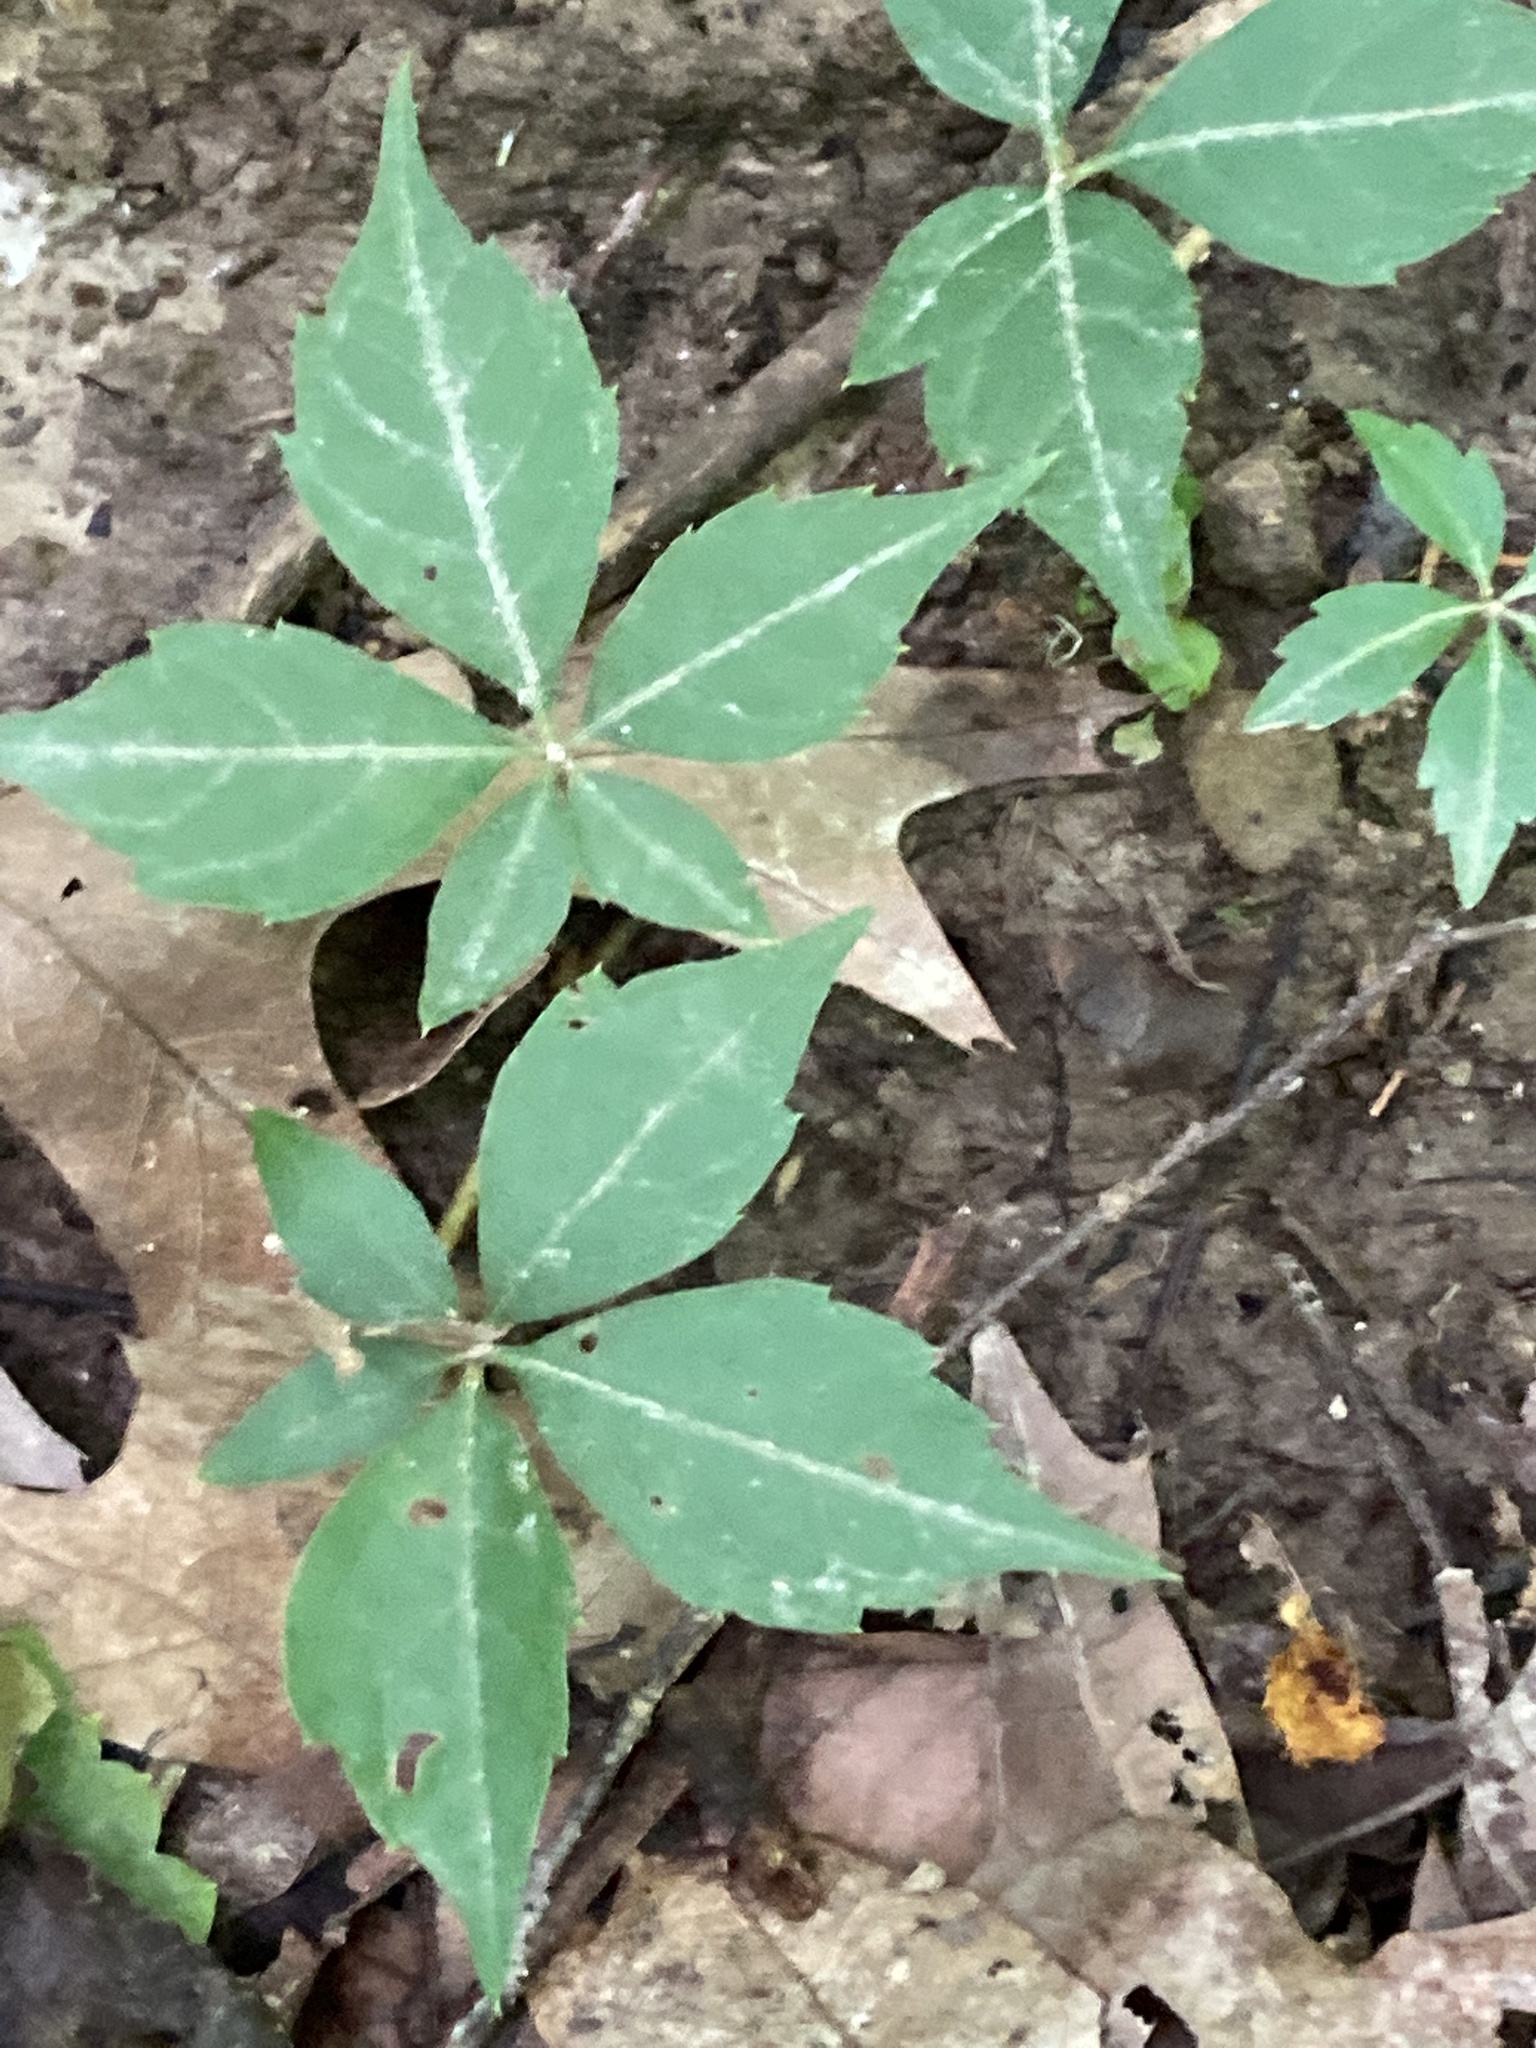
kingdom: Plantae
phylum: Tracheophyta
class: Magnoliopsida
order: Vitales
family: Vitaceae
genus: Parthenocissus
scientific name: Parthenocissus quinquefolia
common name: Virginia-creeper
